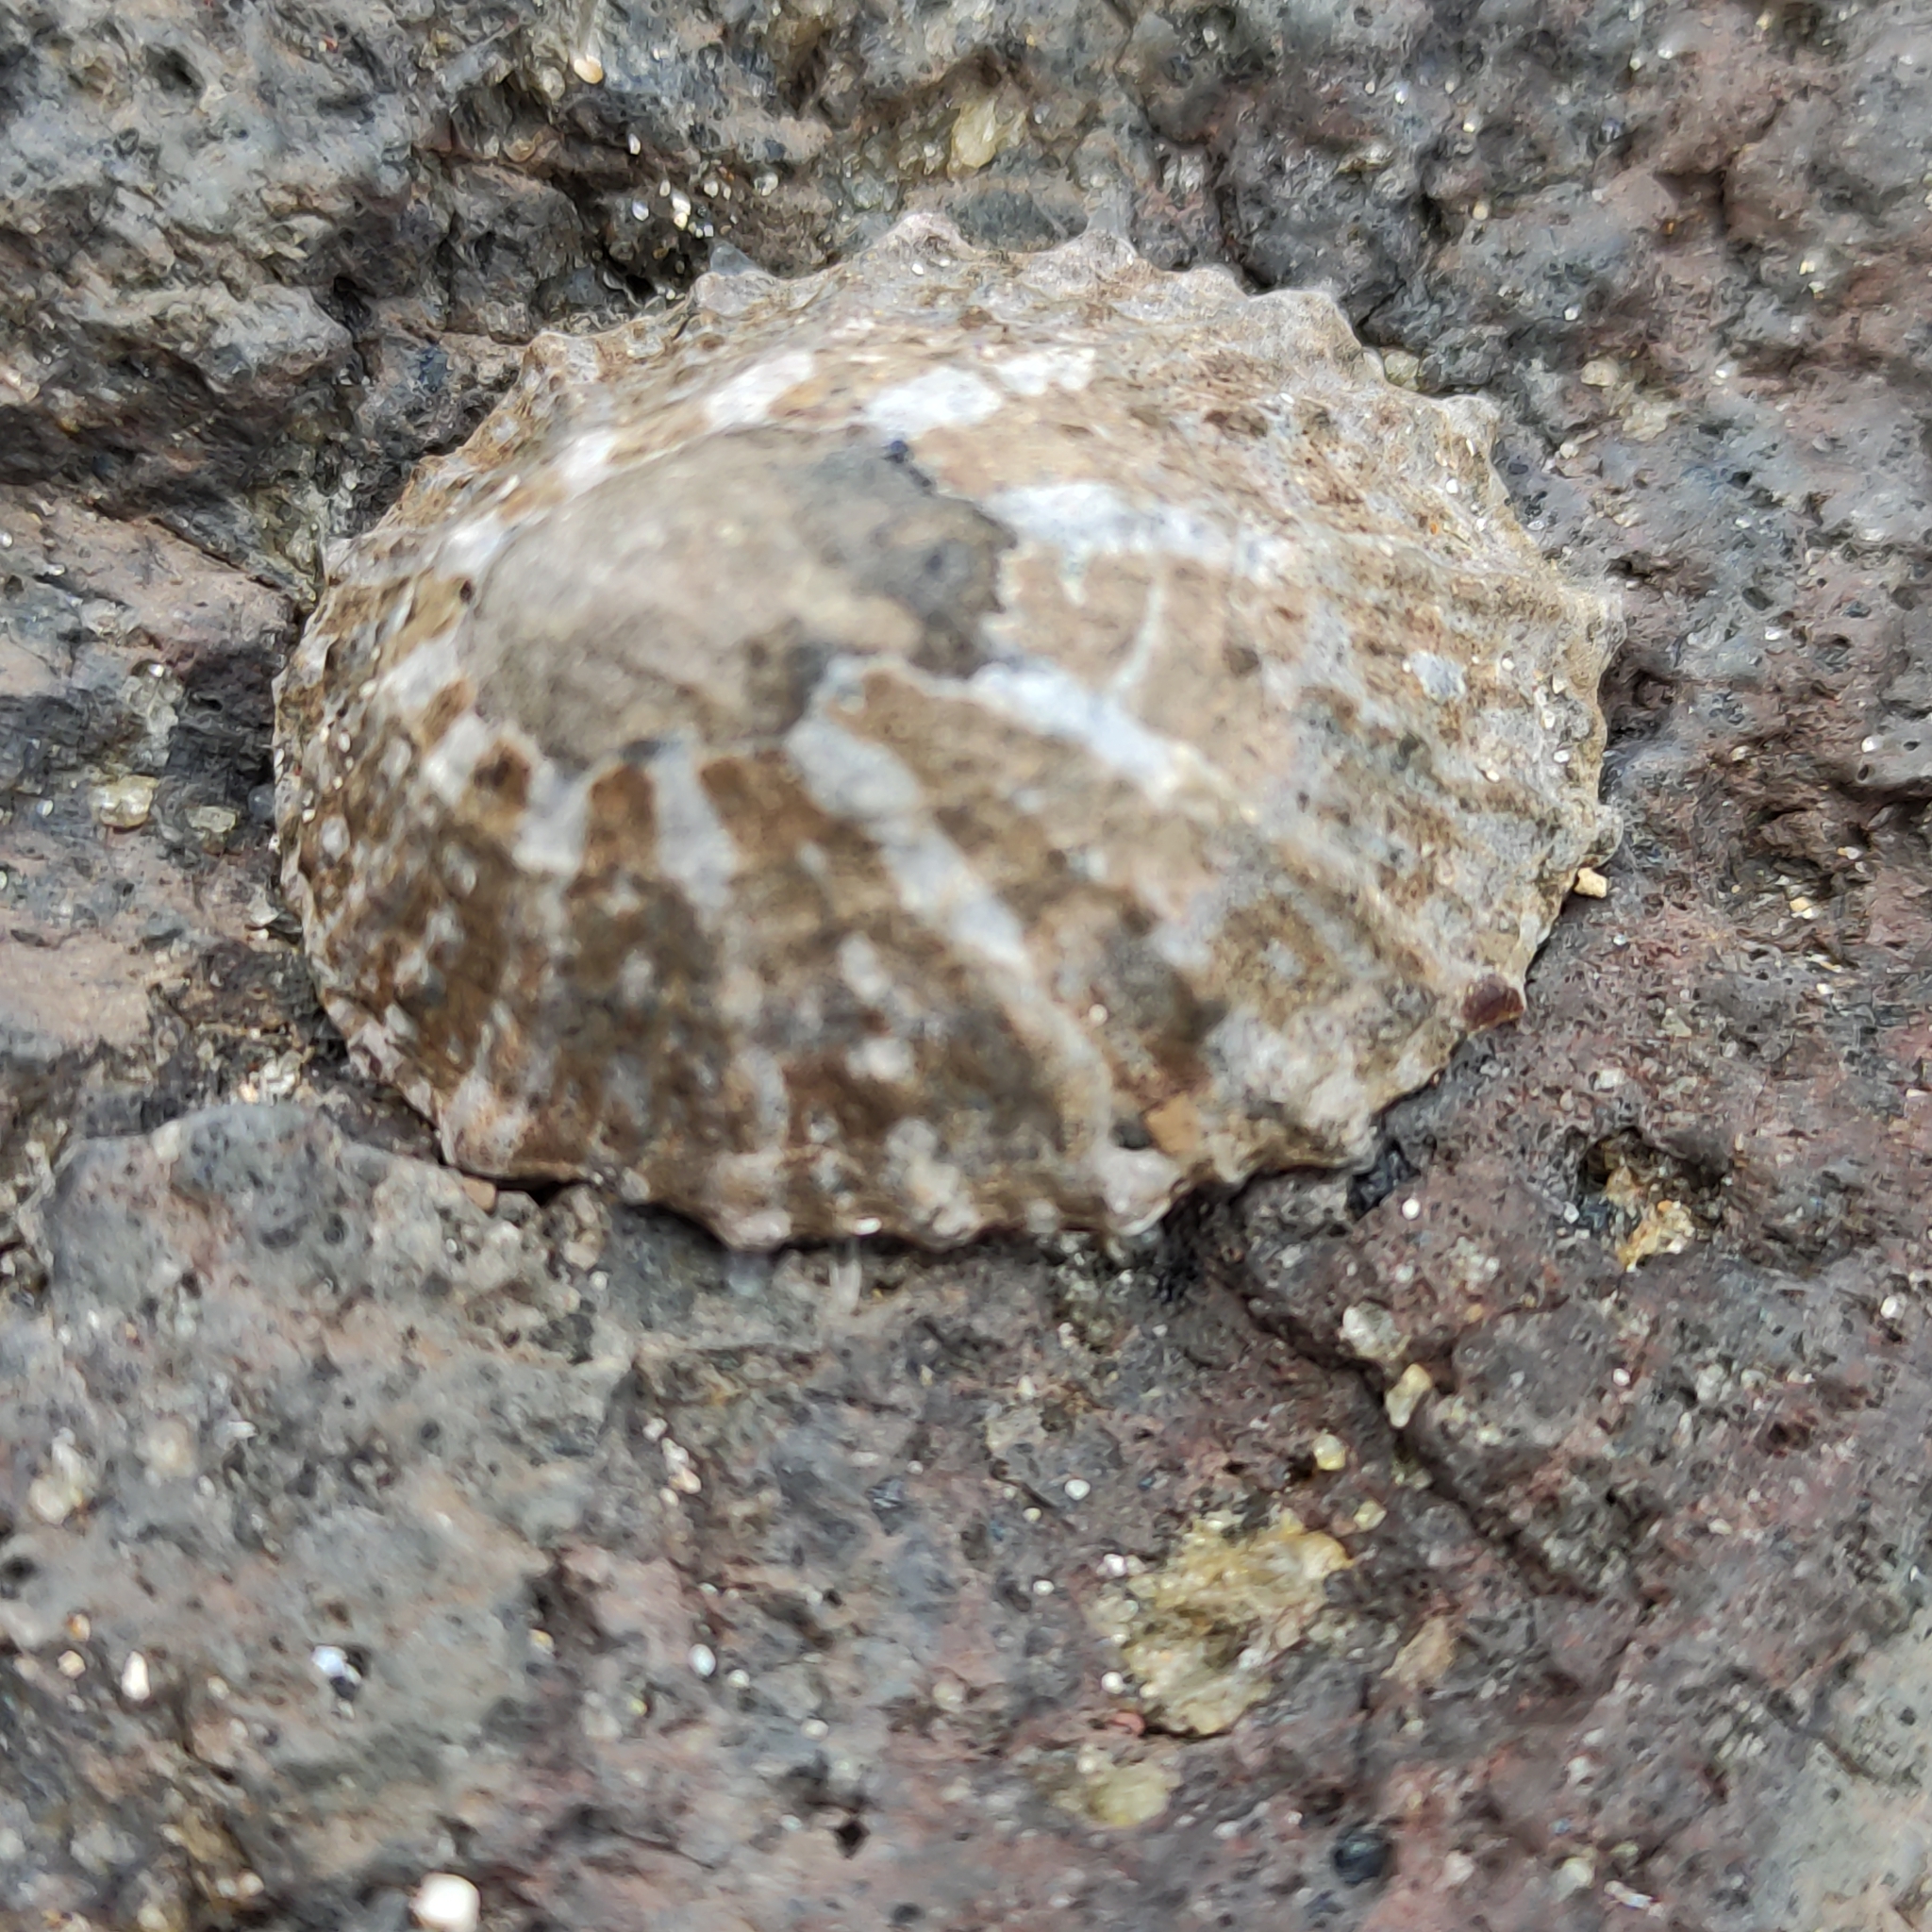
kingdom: Animalia
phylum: Mollusca
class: Gastropoda
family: Nacellidae
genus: Cellana
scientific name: Cellana ornata
